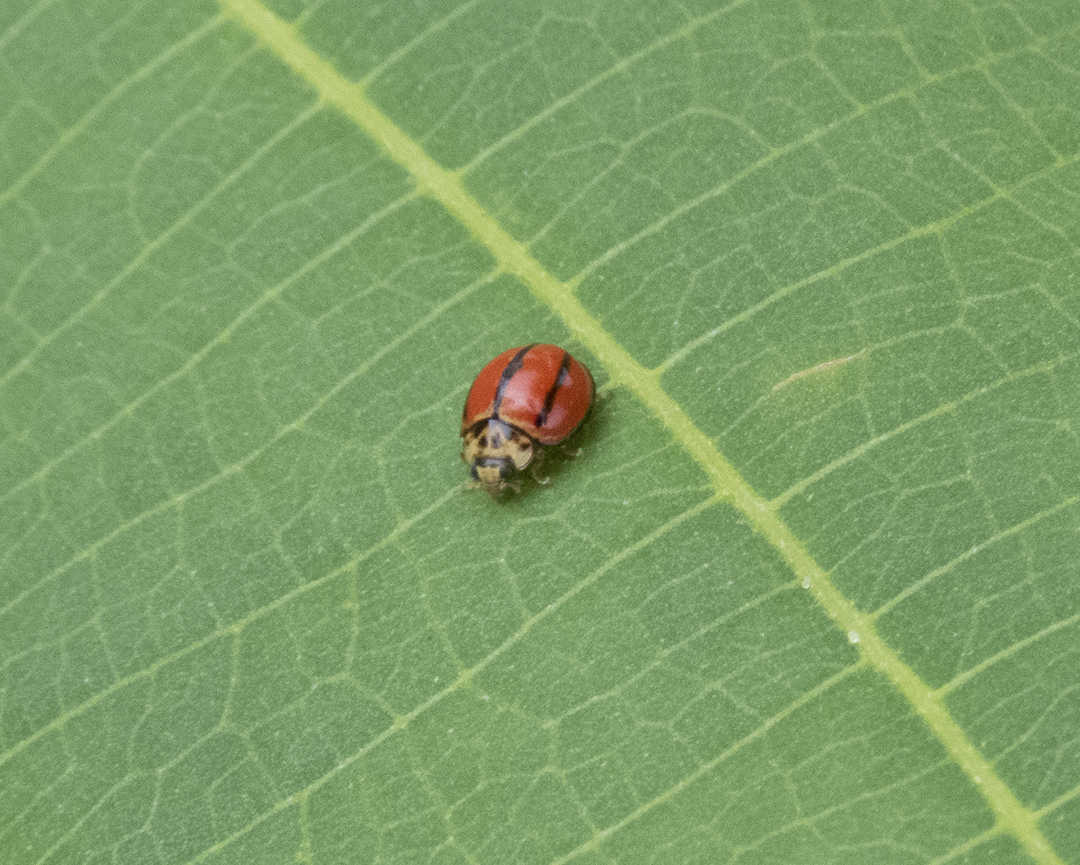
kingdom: Animalia
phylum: Arthropoda
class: Insecta
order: Coleoptera
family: Coccinellidae
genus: Micraspis
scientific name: Micraspis
